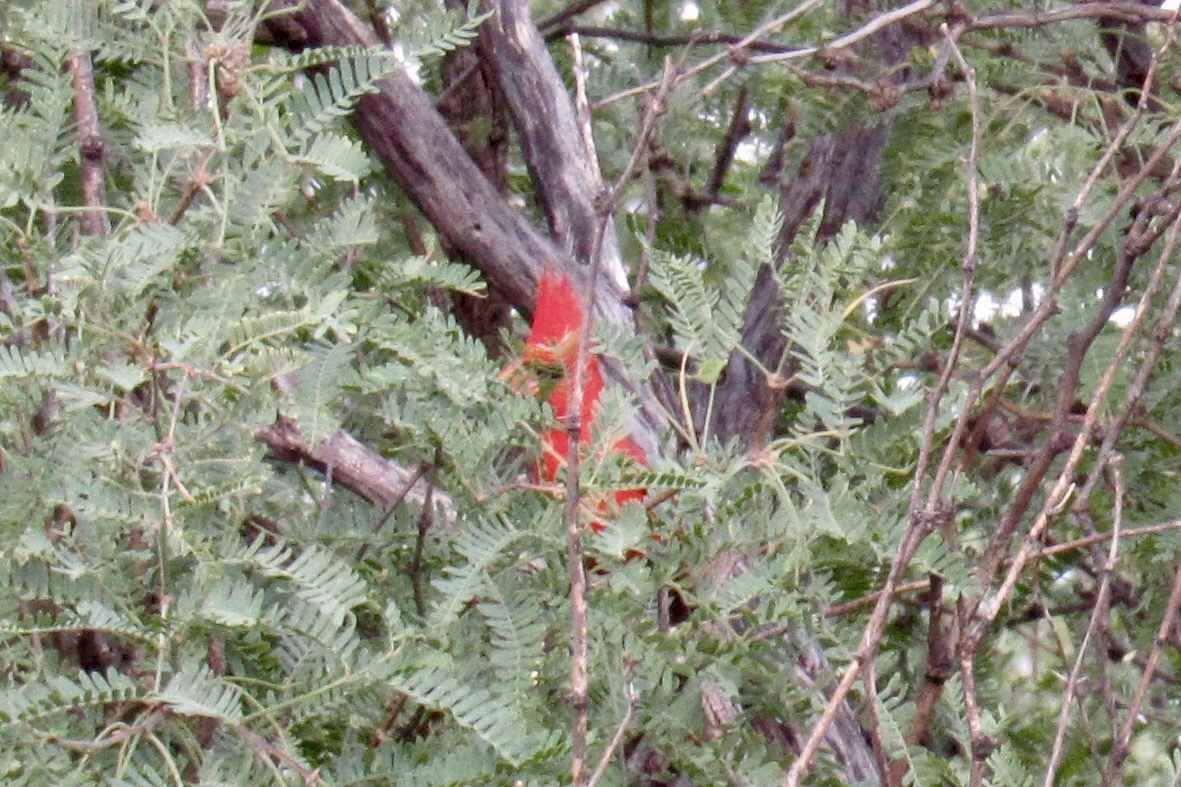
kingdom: Animalia
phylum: Chordata
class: Aves
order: Passeriformes
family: Cardinalidae
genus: Cardinalis
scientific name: Cardinalis cardinalis
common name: Northern cardinal
